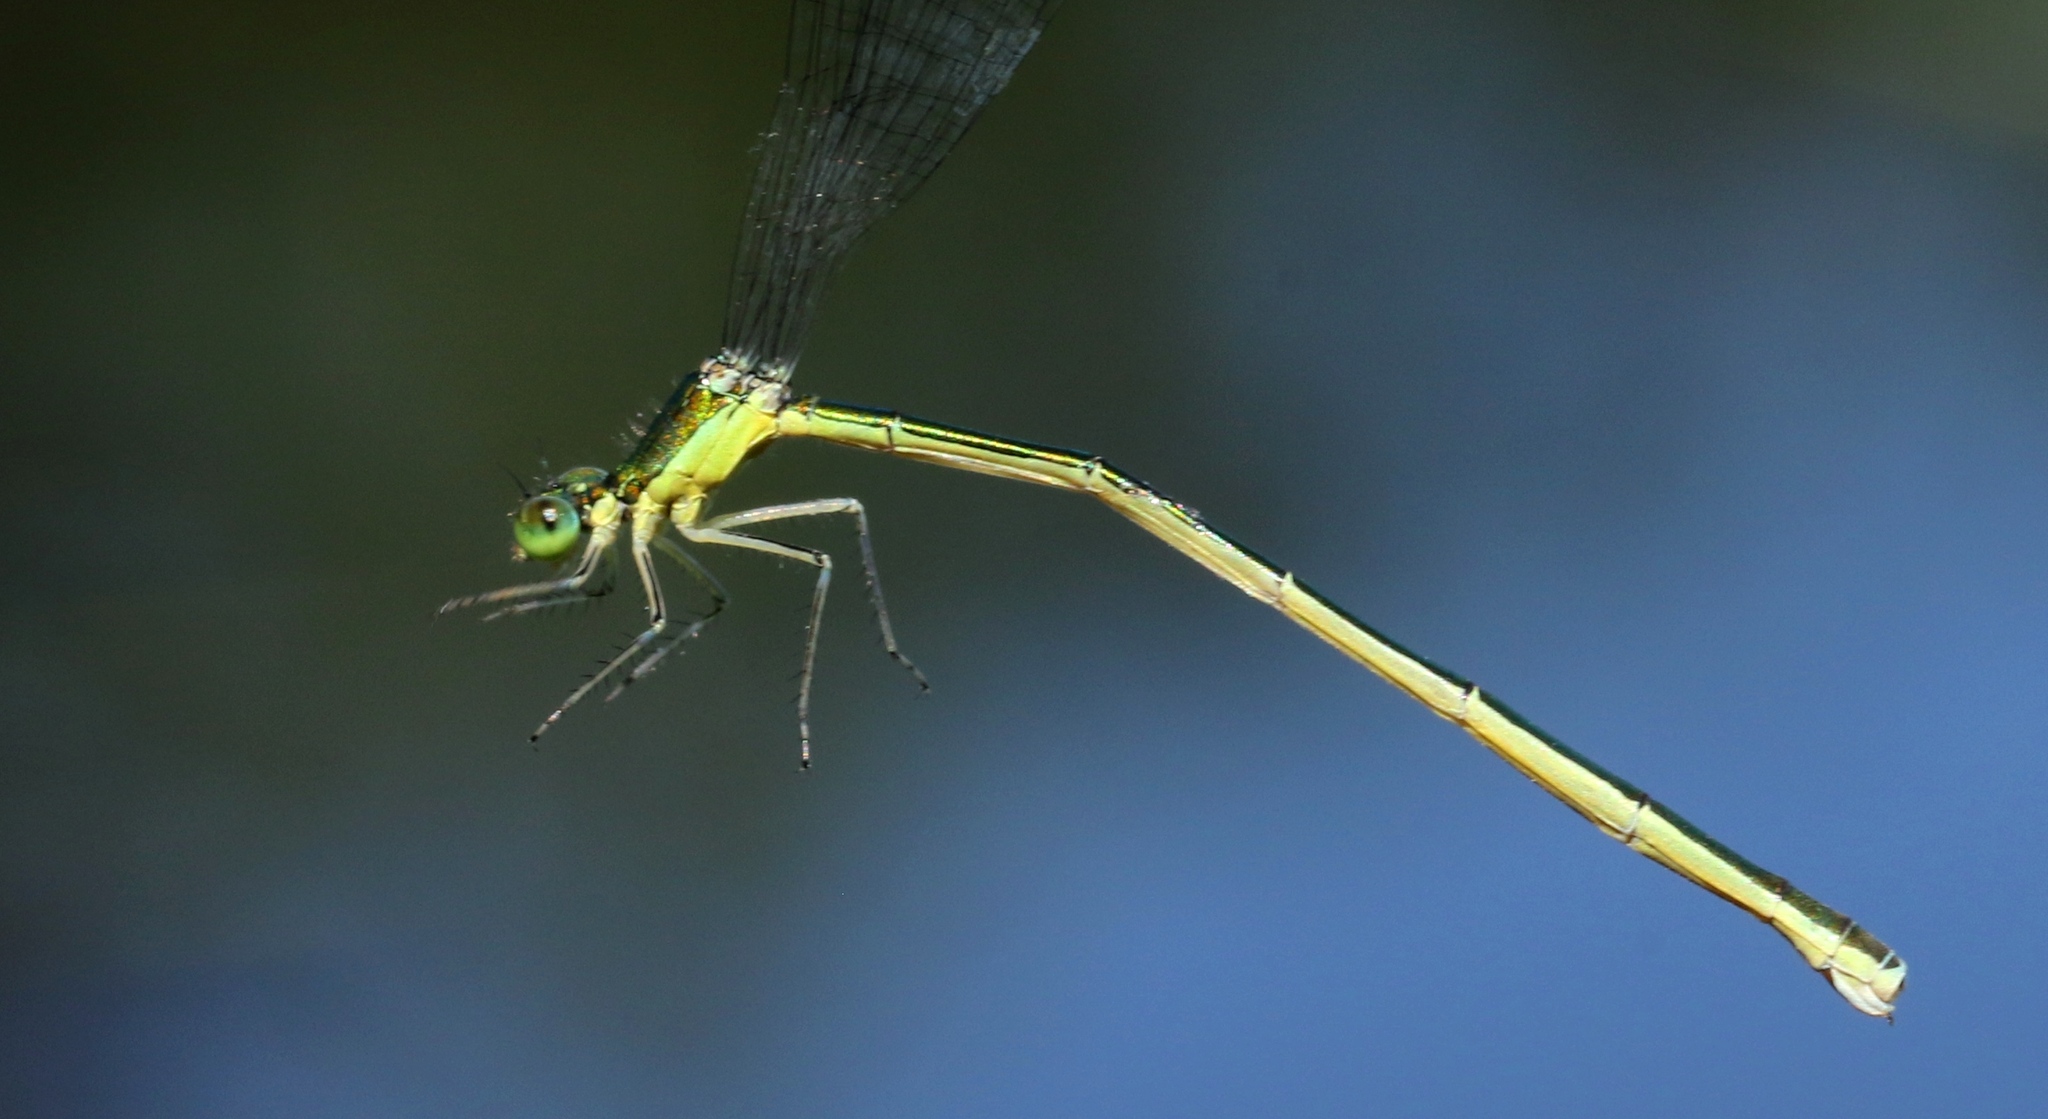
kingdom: Animalia
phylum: Arthropoda
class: Insecta
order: Odonata
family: Coenagrionidae
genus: Nehalennia
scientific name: Nehalennia irene
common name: Sedge sprite
